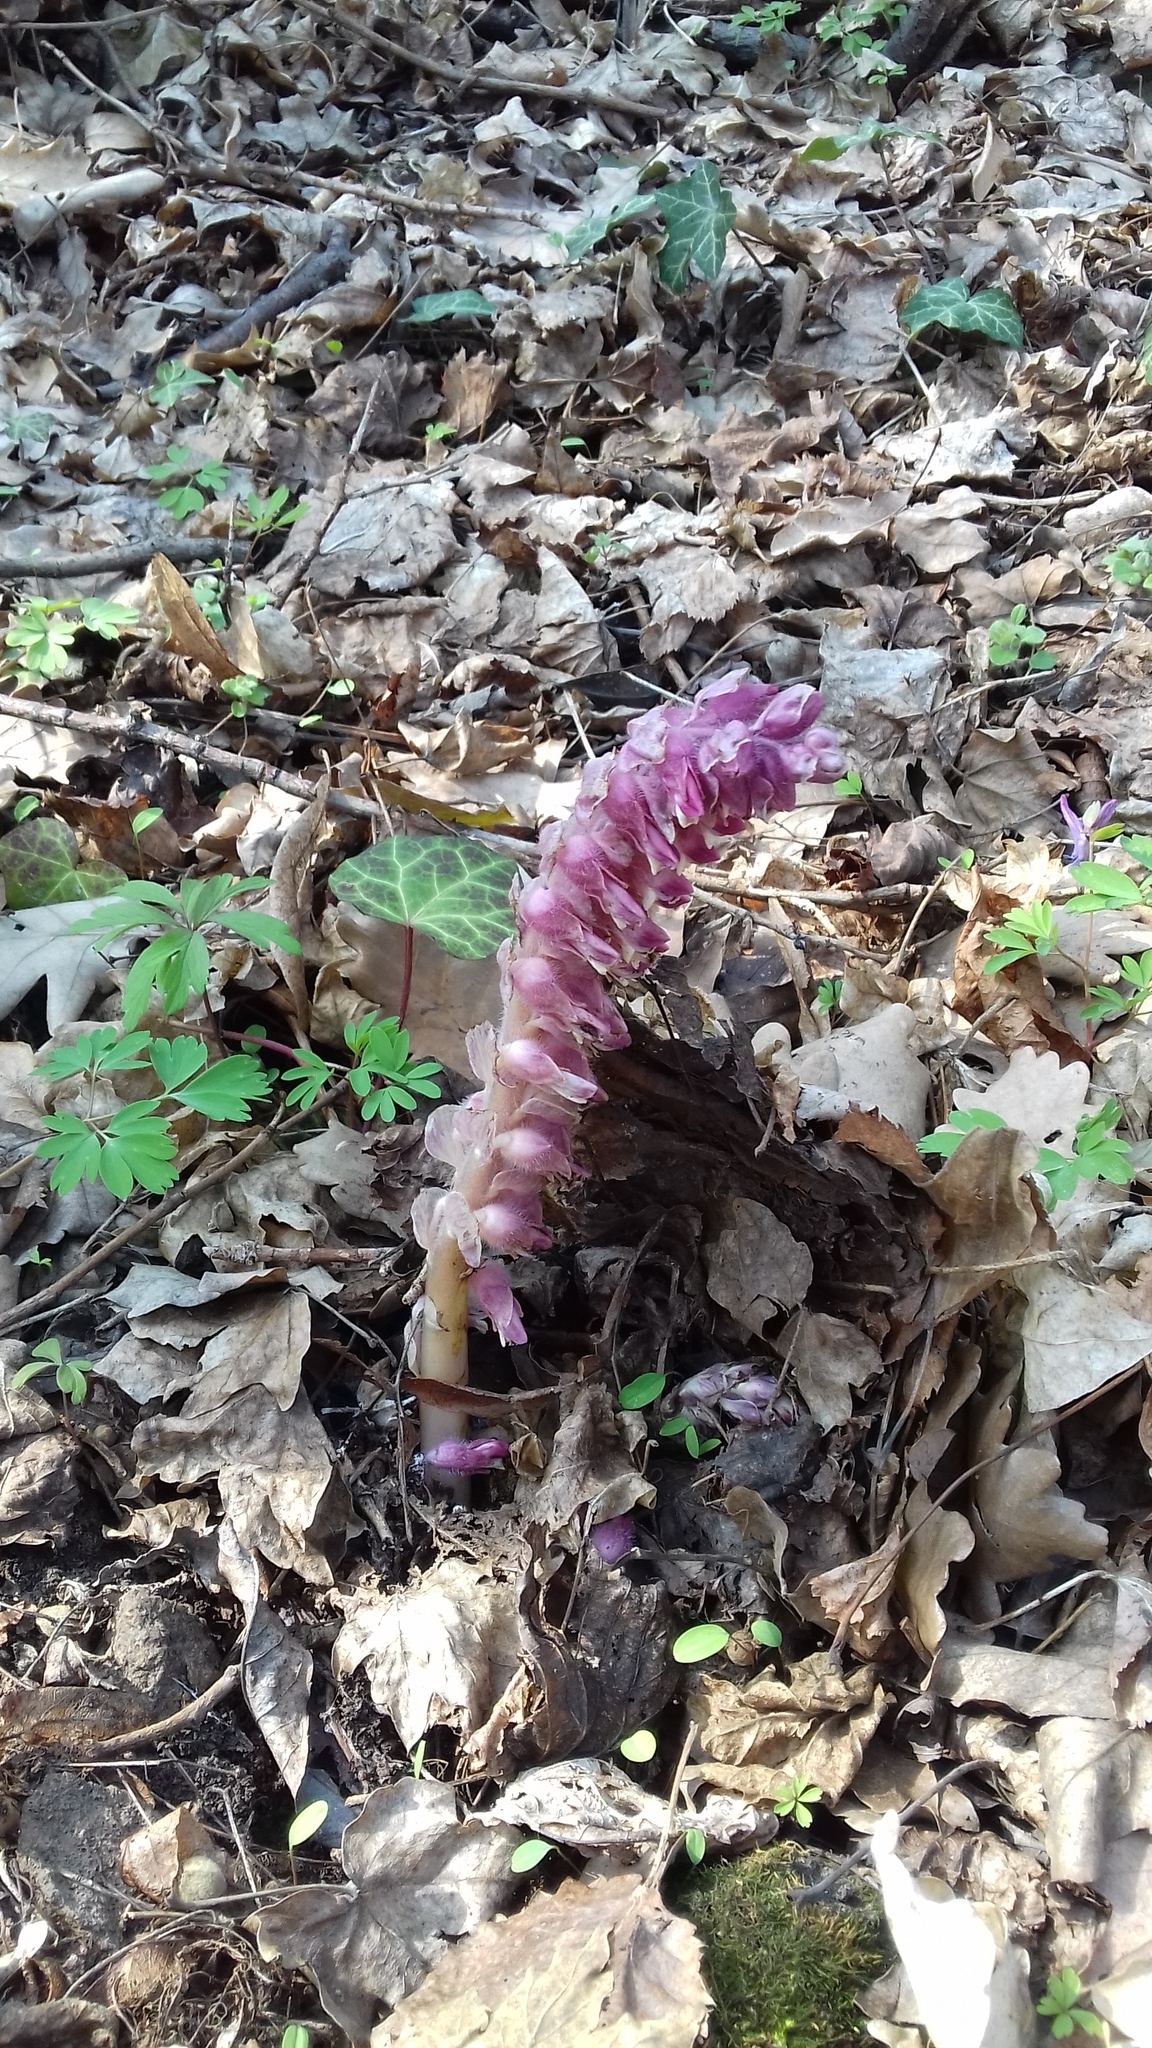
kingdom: Plantae
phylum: Tracheophyta
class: Magnoliopsida
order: Lamiales
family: Orobanchaceae
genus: Lathraea
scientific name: Lathraea squamaria
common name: Toothwort
